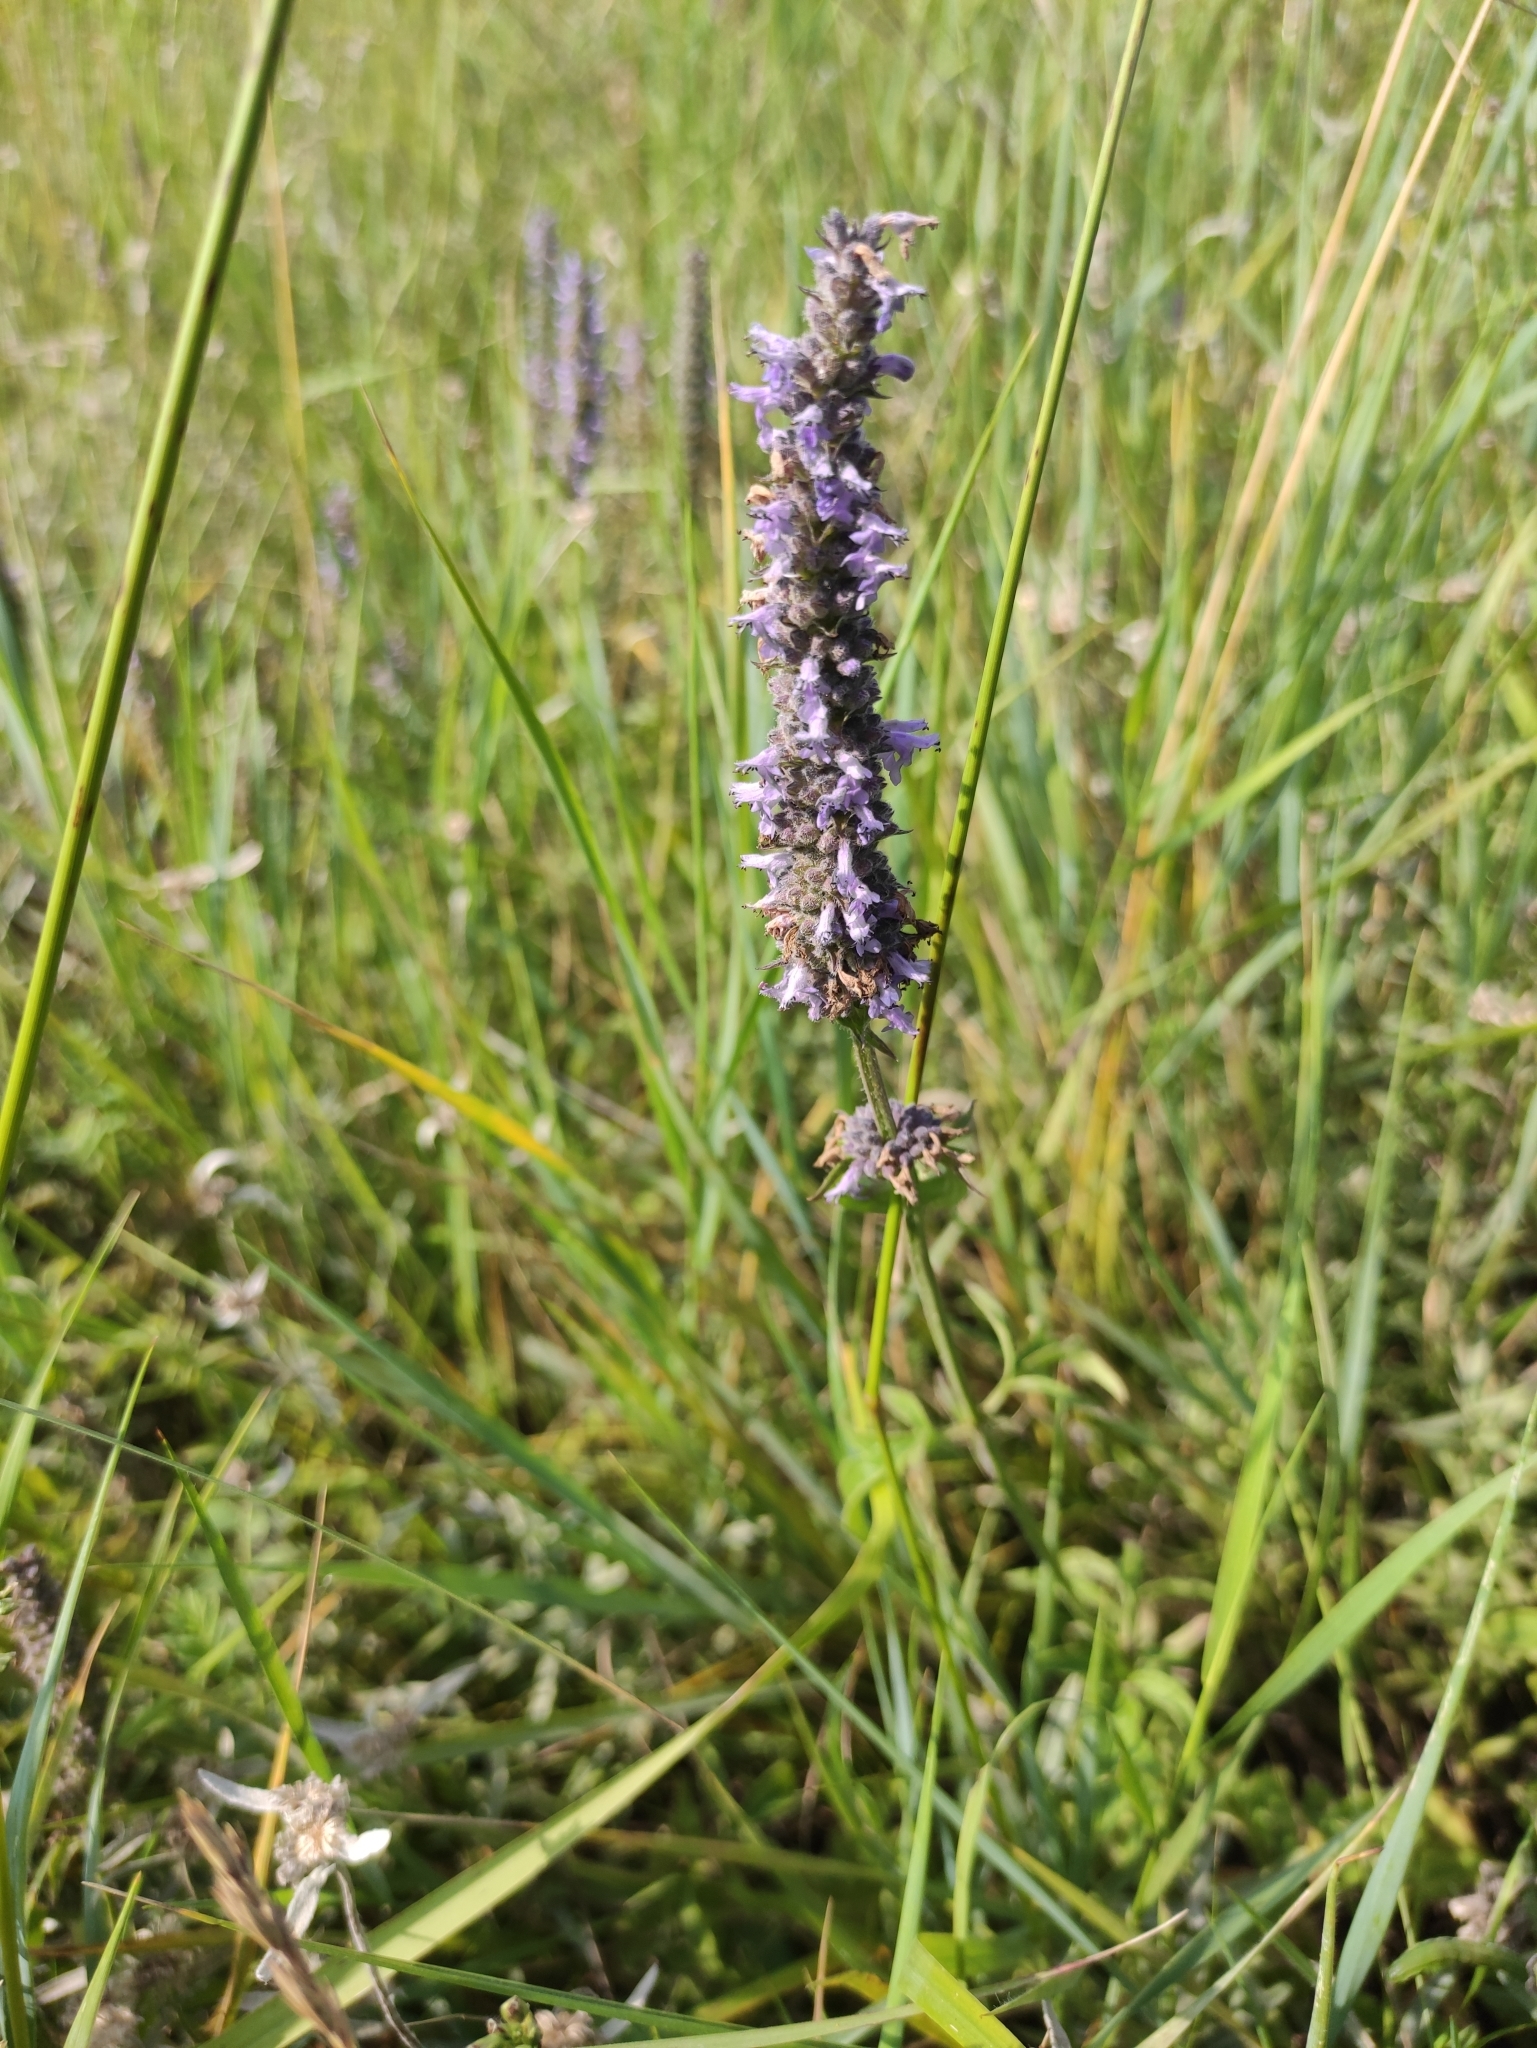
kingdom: Plantae
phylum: Tracheophyta
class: Magnoliopsida
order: Lamiales
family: Lamiaceae
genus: Nepeta
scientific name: Nepeta multifida
